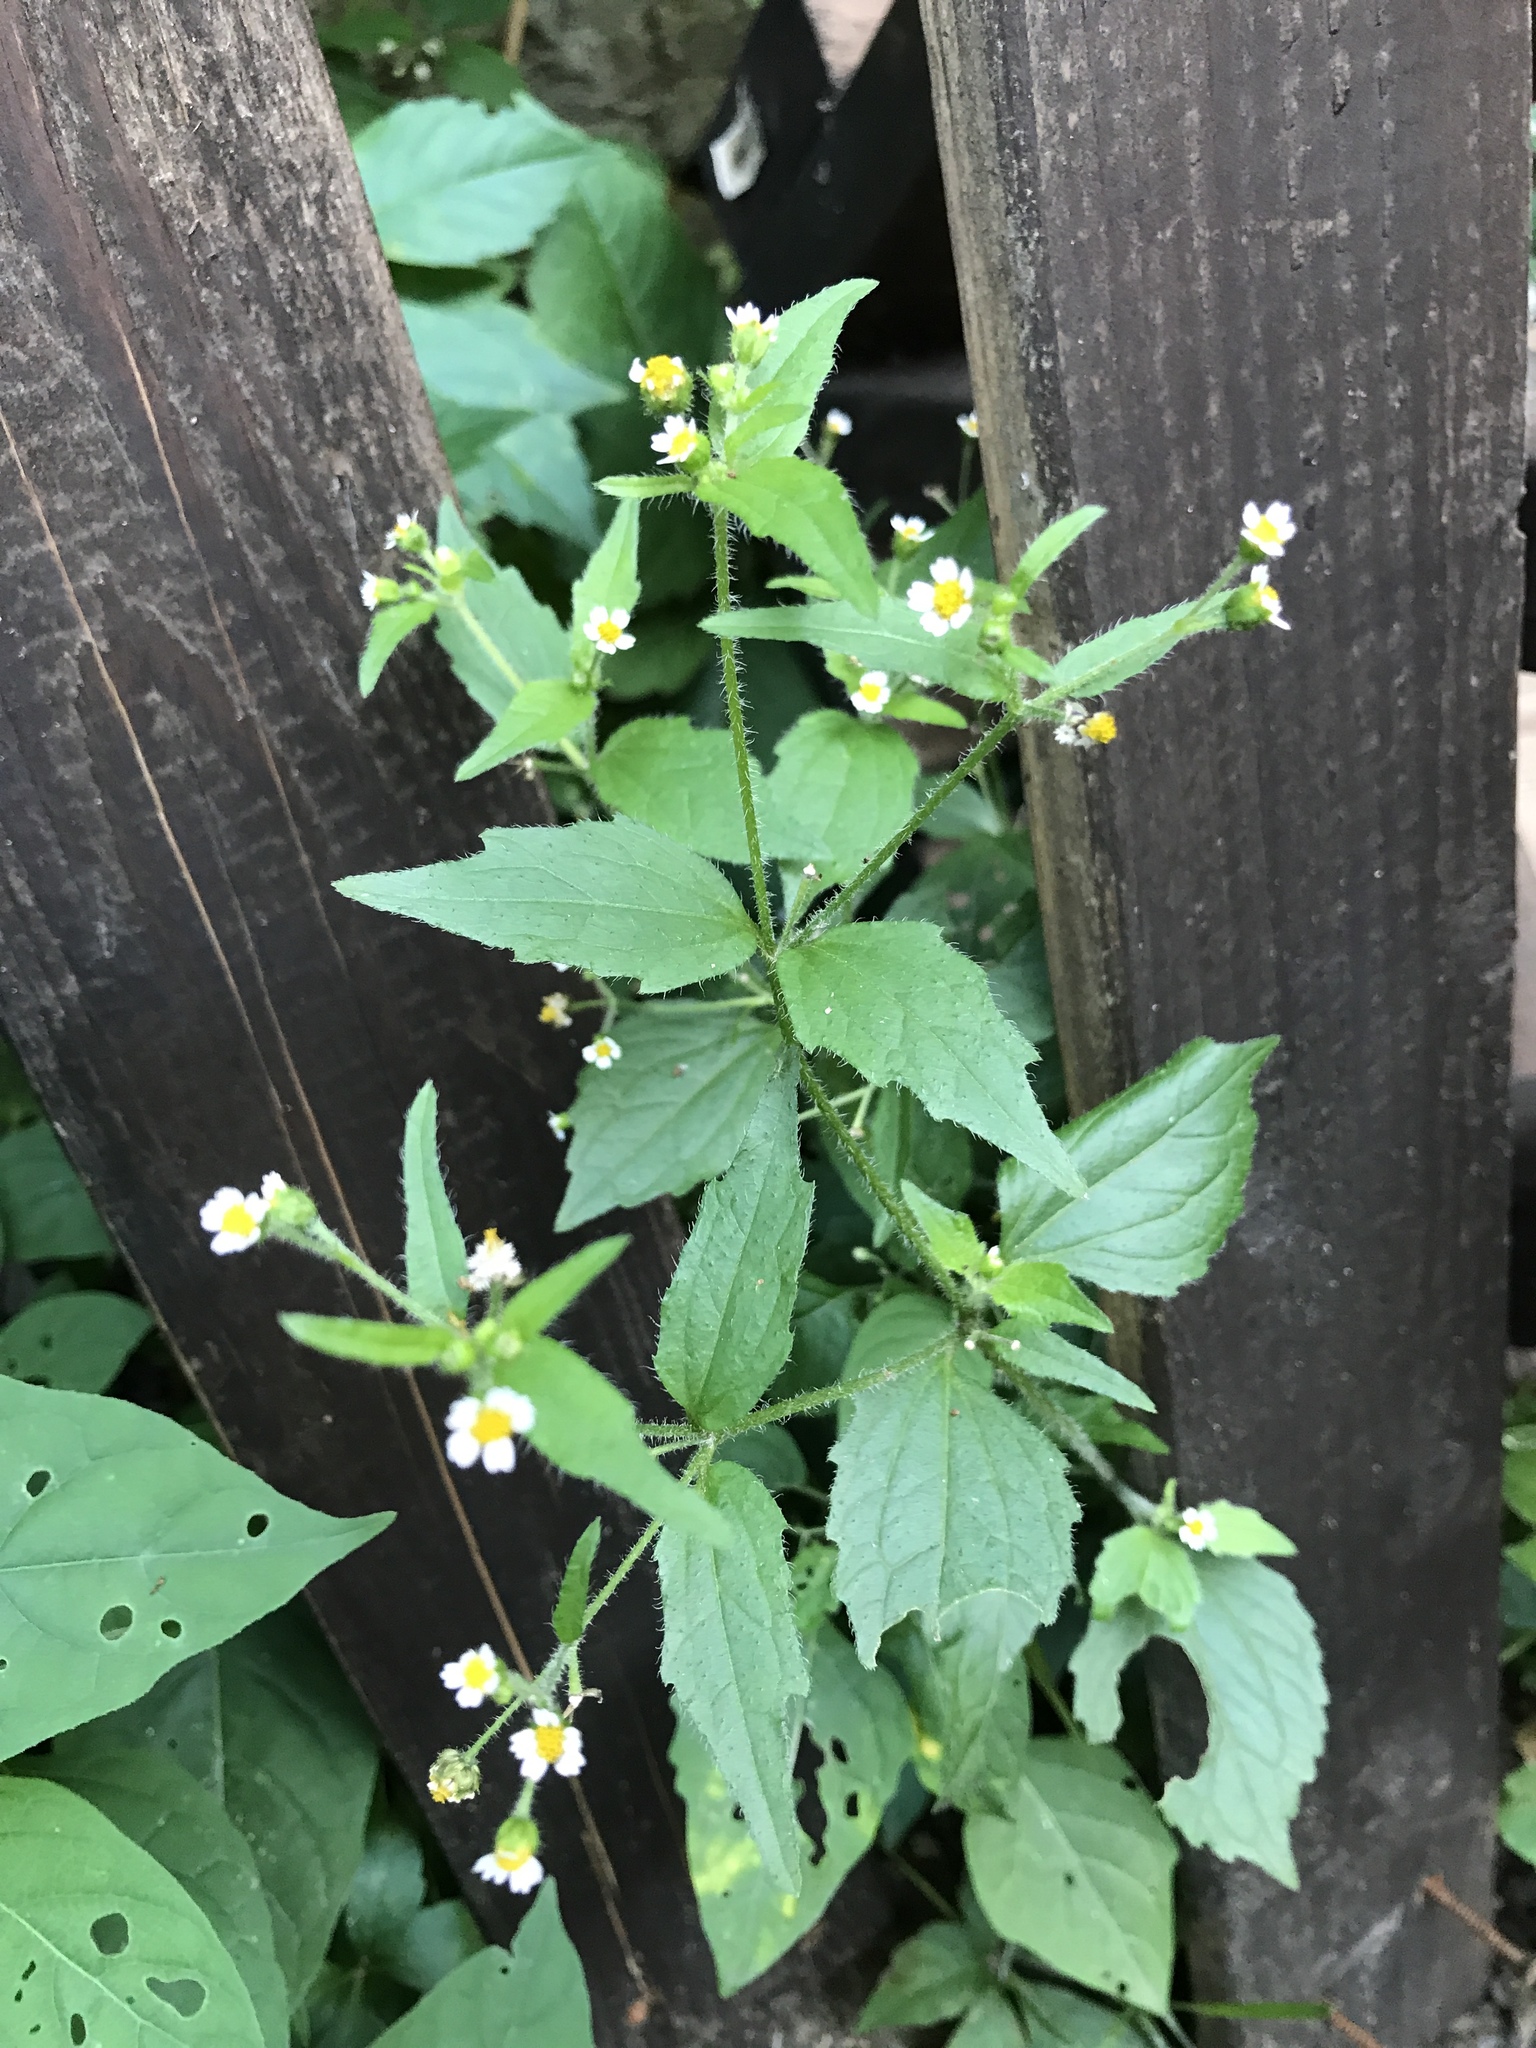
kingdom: Plantae
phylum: Tracheophyta
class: Magnoliopsida
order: Asterales
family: Asteraceae
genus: Galinsoga
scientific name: Galinsoga quadriradiata
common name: Shaggy soldier
